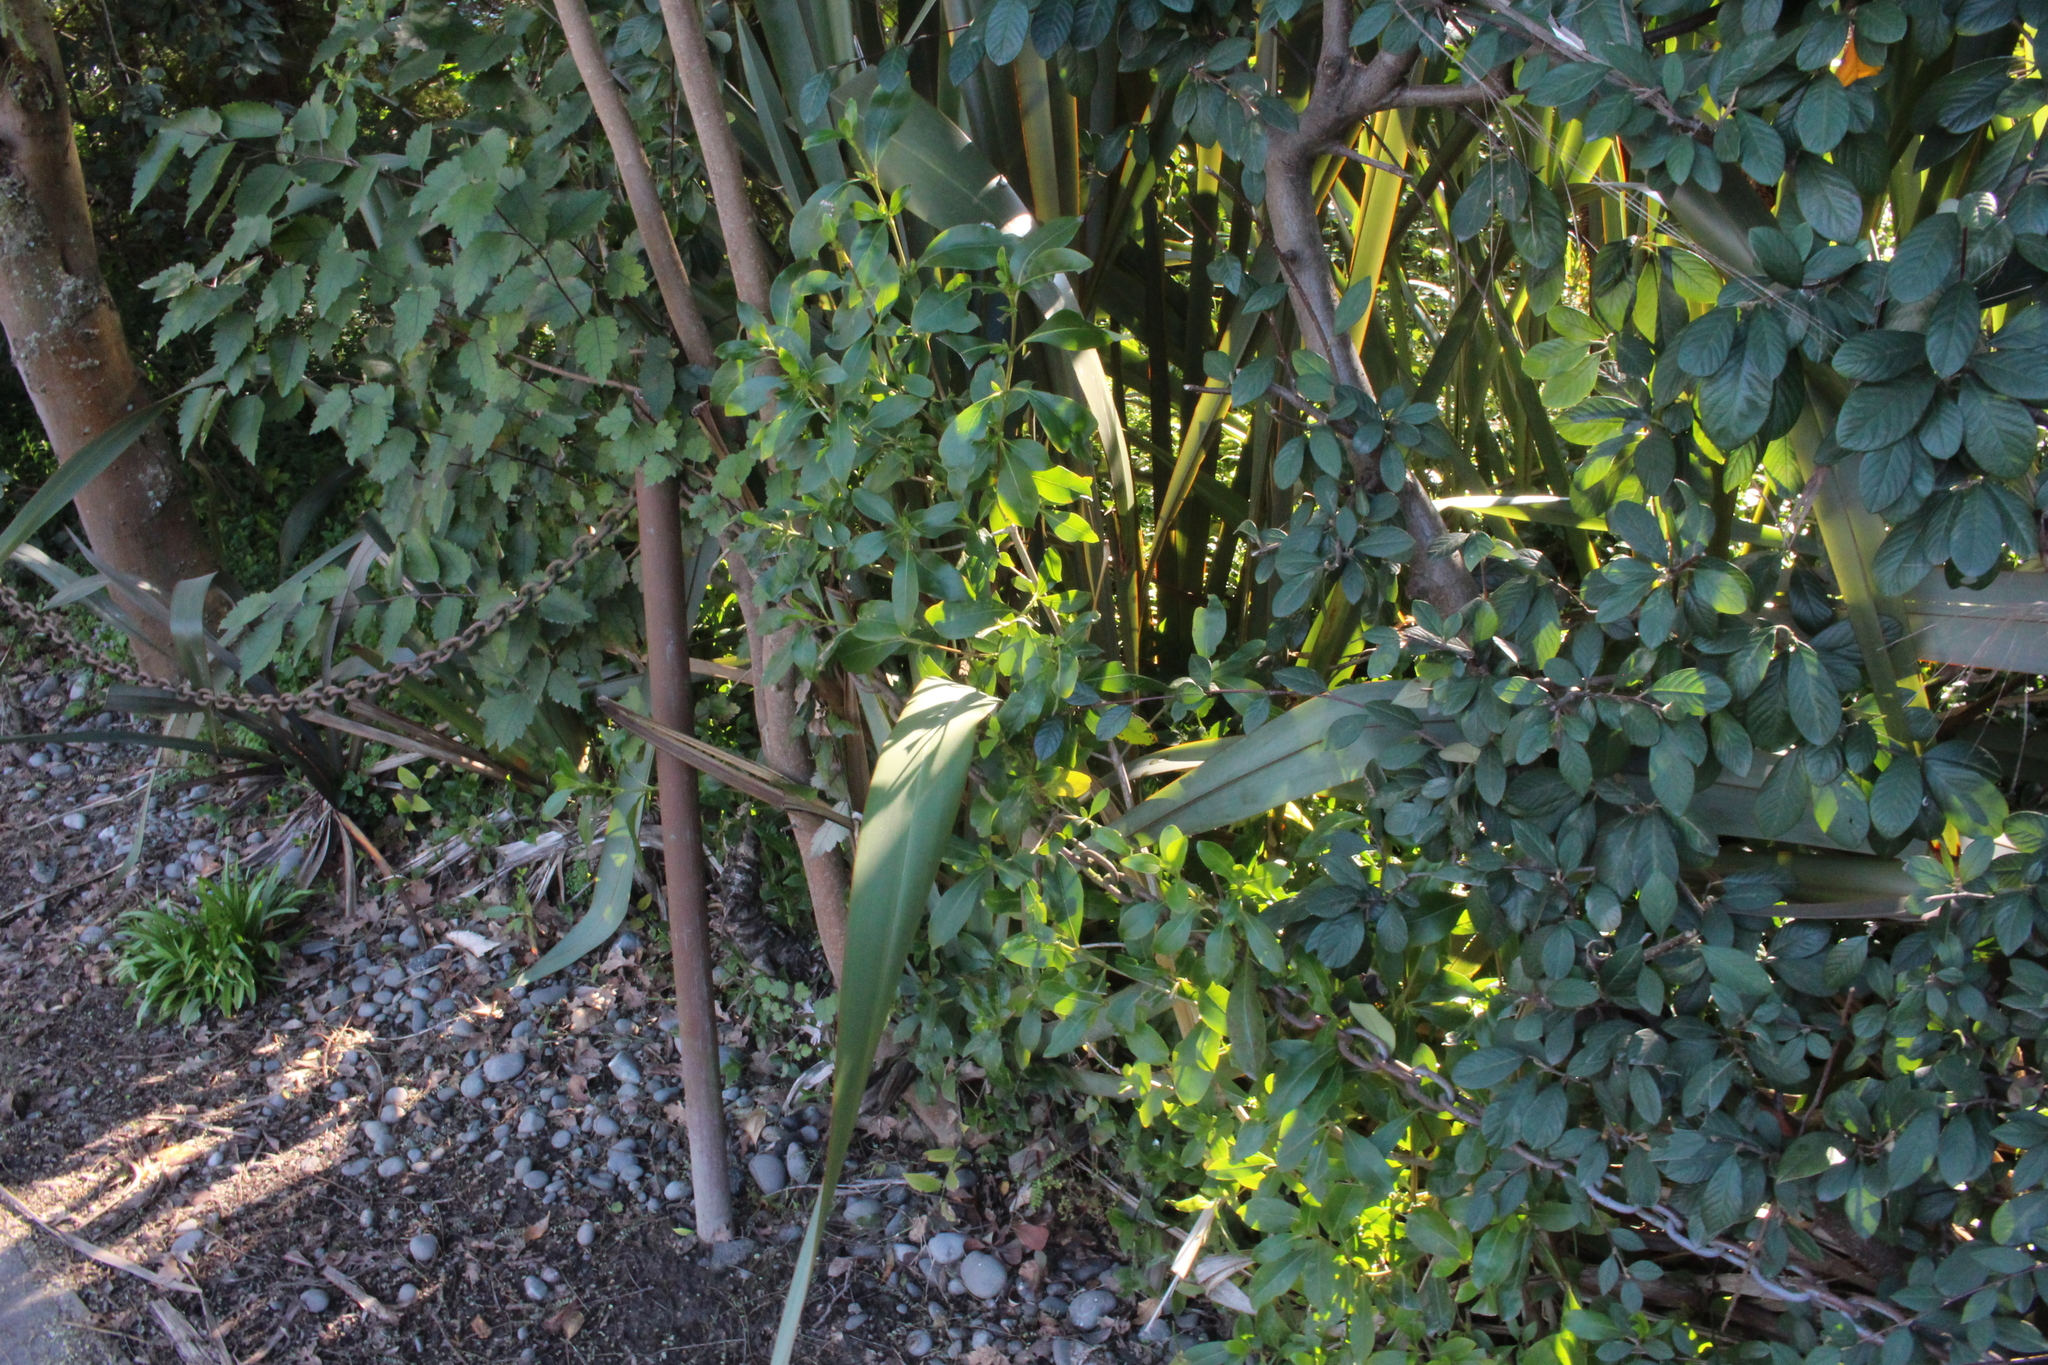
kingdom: Plantae
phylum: Tracheophyta
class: Magnoliopsida
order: Gentianales
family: Rubiaceae
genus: Coprosma
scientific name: Coprosma robusta
